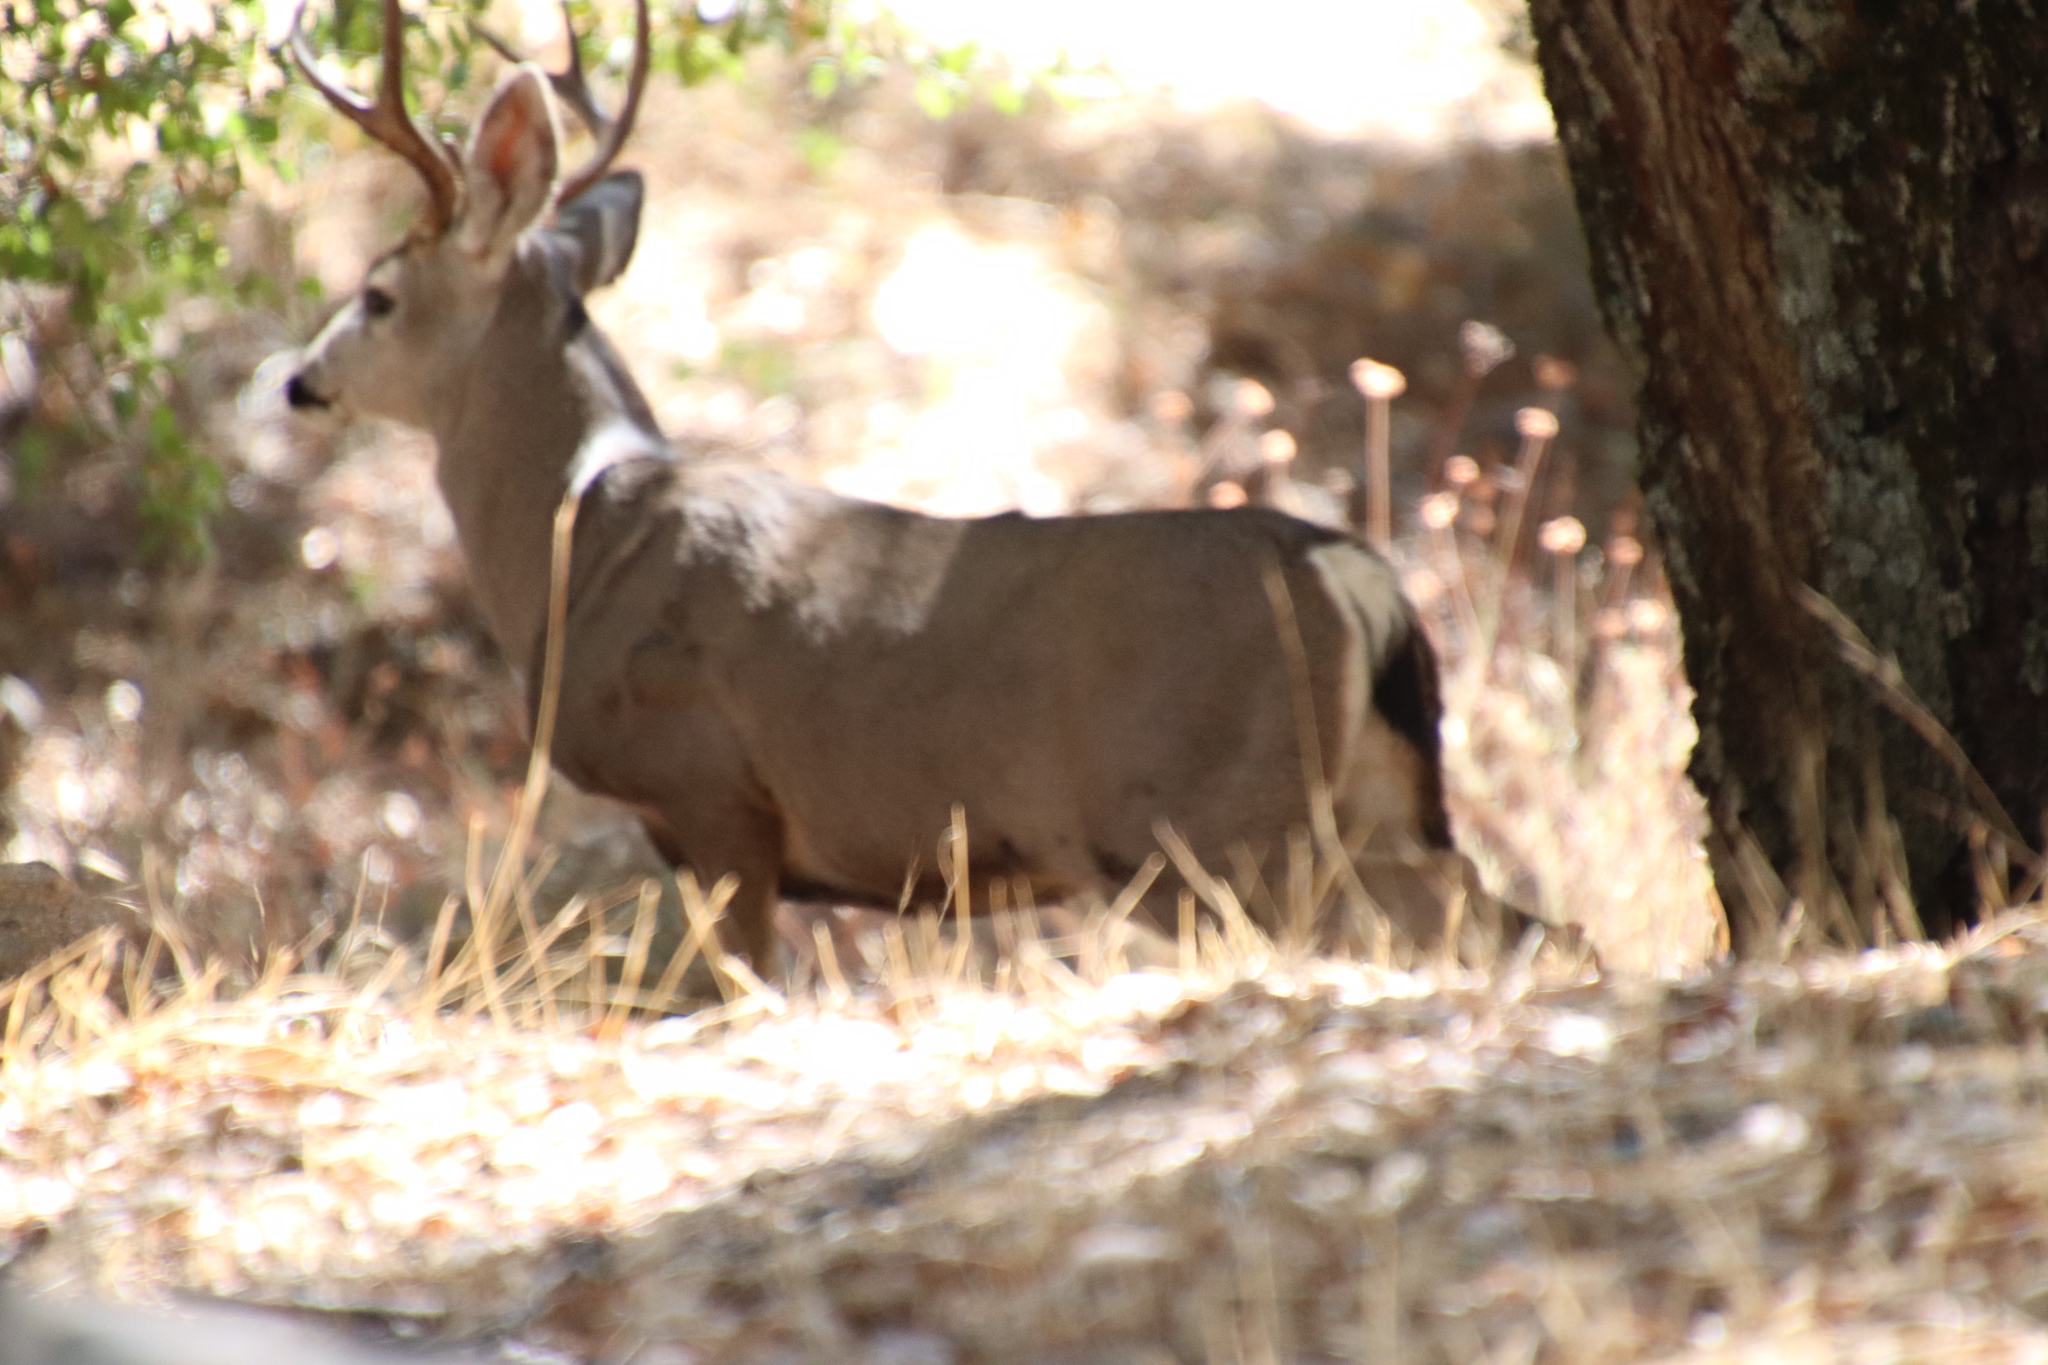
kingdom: Animalia
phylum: Chordata
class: Mammalia
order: Artiodactyla
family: Cervidae
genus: Odocoileus
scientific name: Odocoileus hemionus
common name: Mule deer
